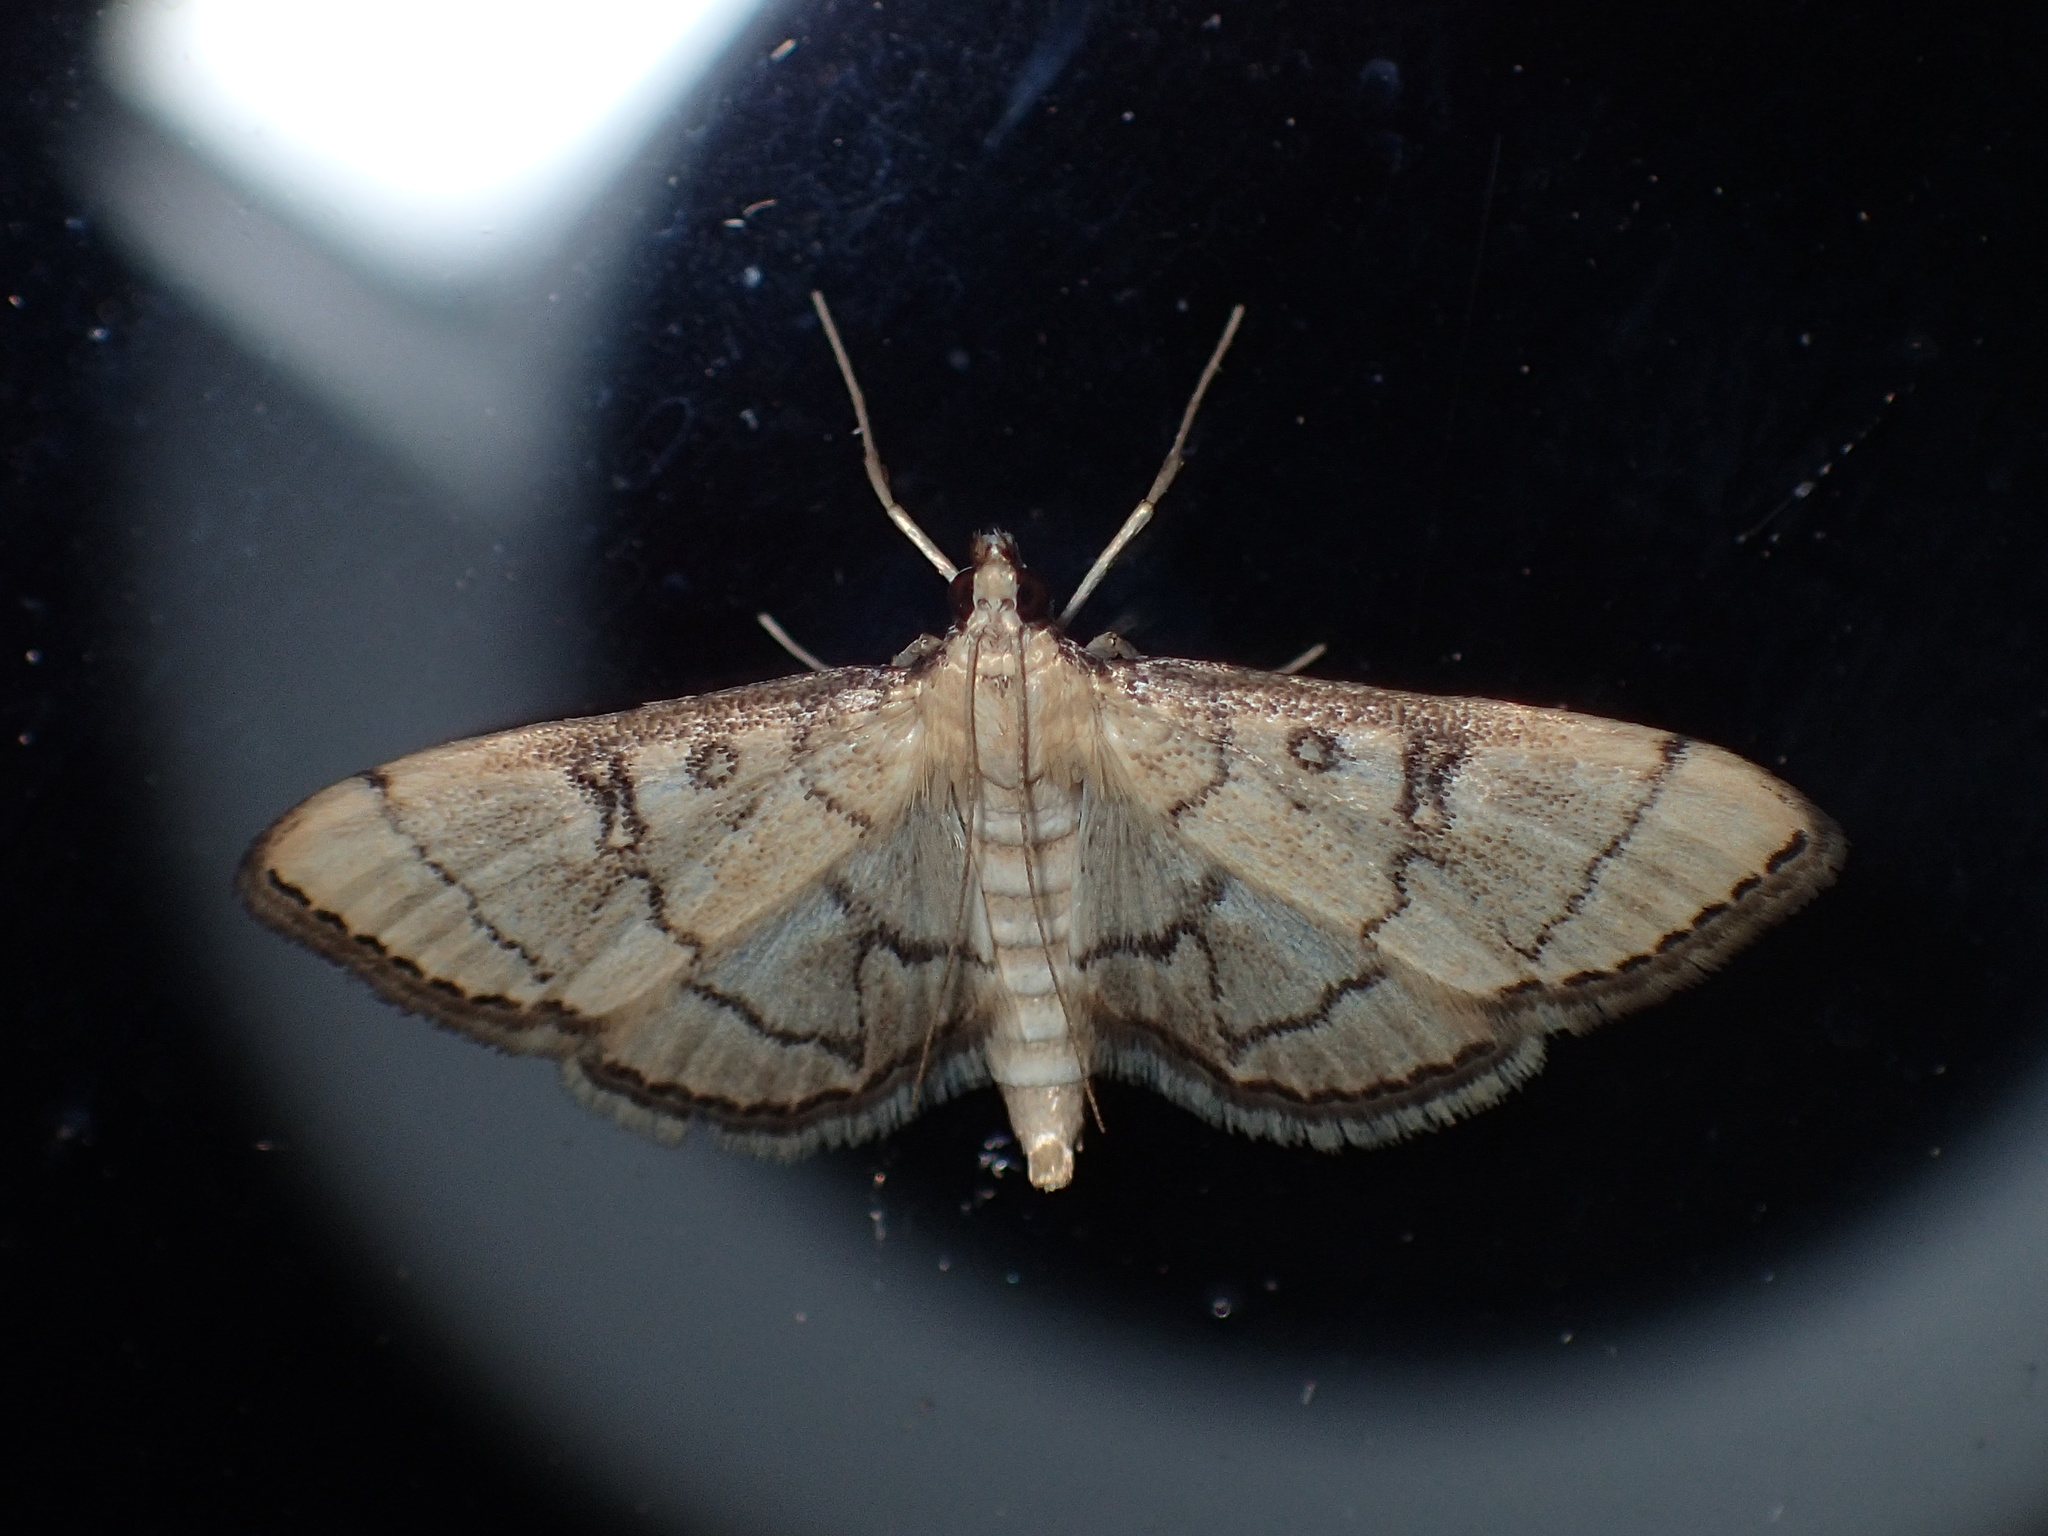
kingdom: Animalia
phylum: Arthropoda
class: Insecta
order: Lepidoptera
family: Crambidae
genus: Lamprosema
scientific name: Lamprosema Blepharomastix ranalis
